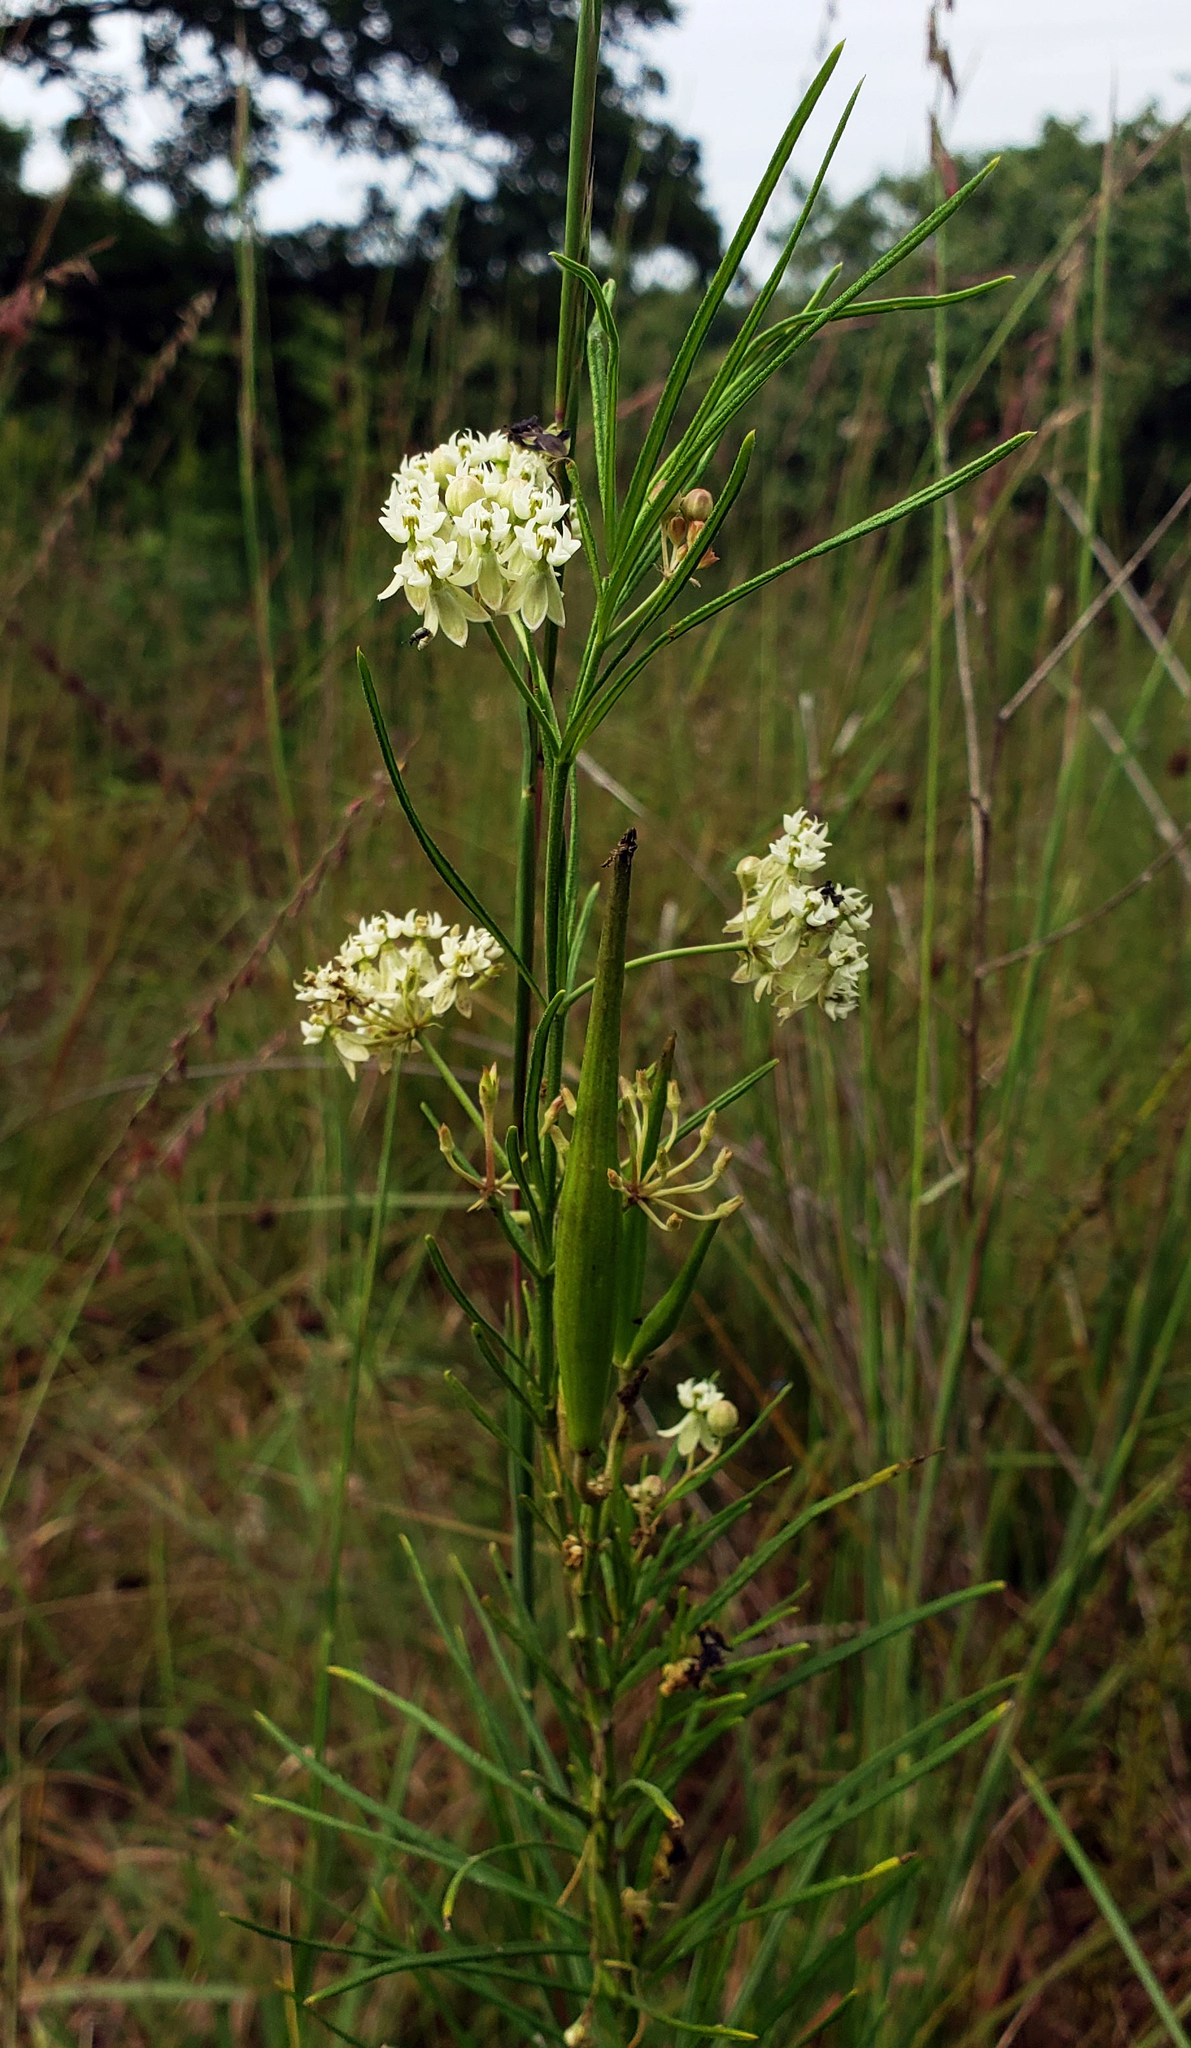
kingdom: Plantae
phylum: Tracheophyta
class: Magnoliopsida
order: Gentianales
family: Apocynaceae
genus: Asclepias
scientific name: Asclepias verticillata
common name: Eastern whorled milkweed
